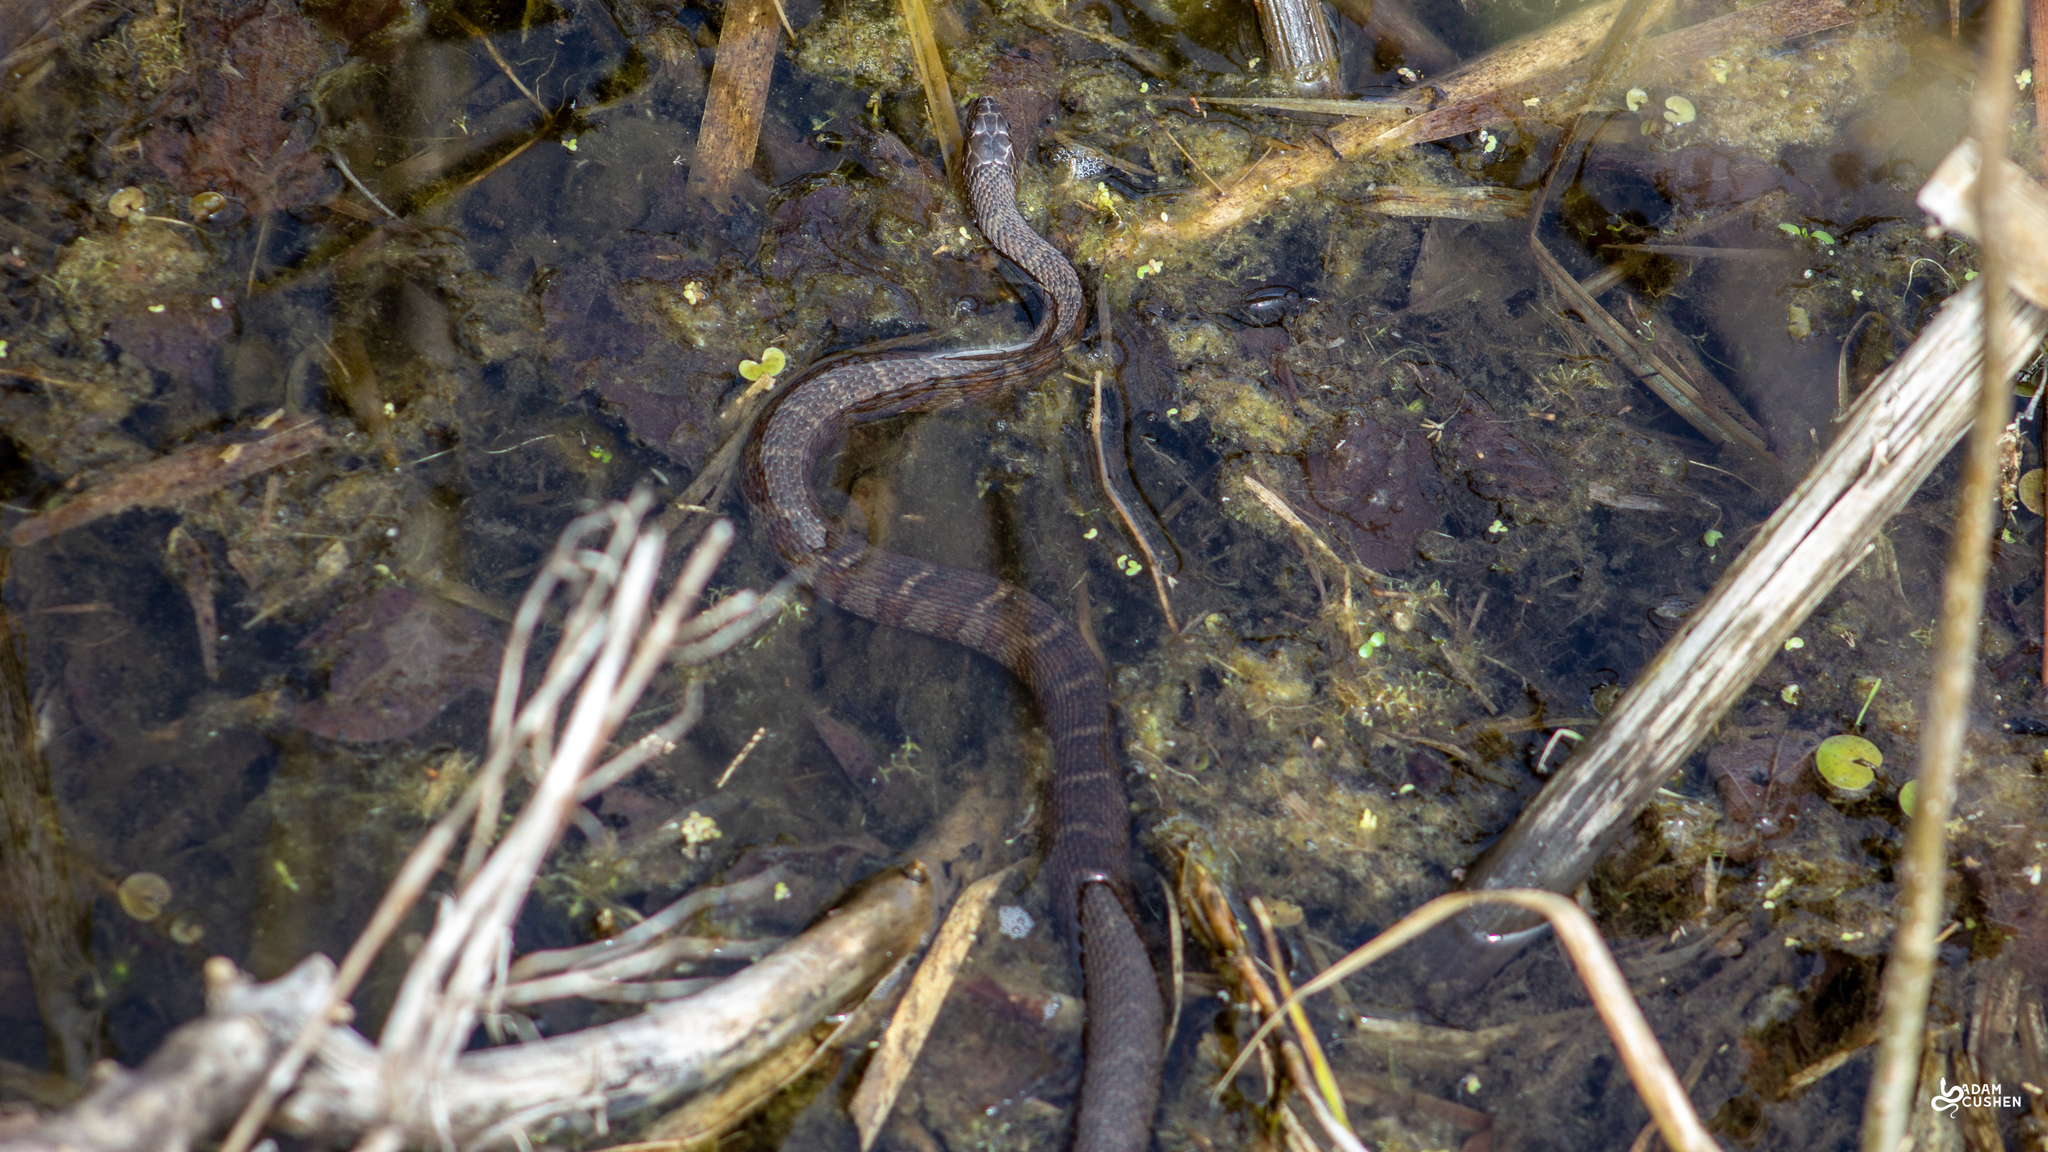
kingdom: Animalia
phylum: Chordata
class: Squamata
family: Colubridae
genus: Nerodia
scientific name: Nerodia sipedon
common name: Northern water snake
